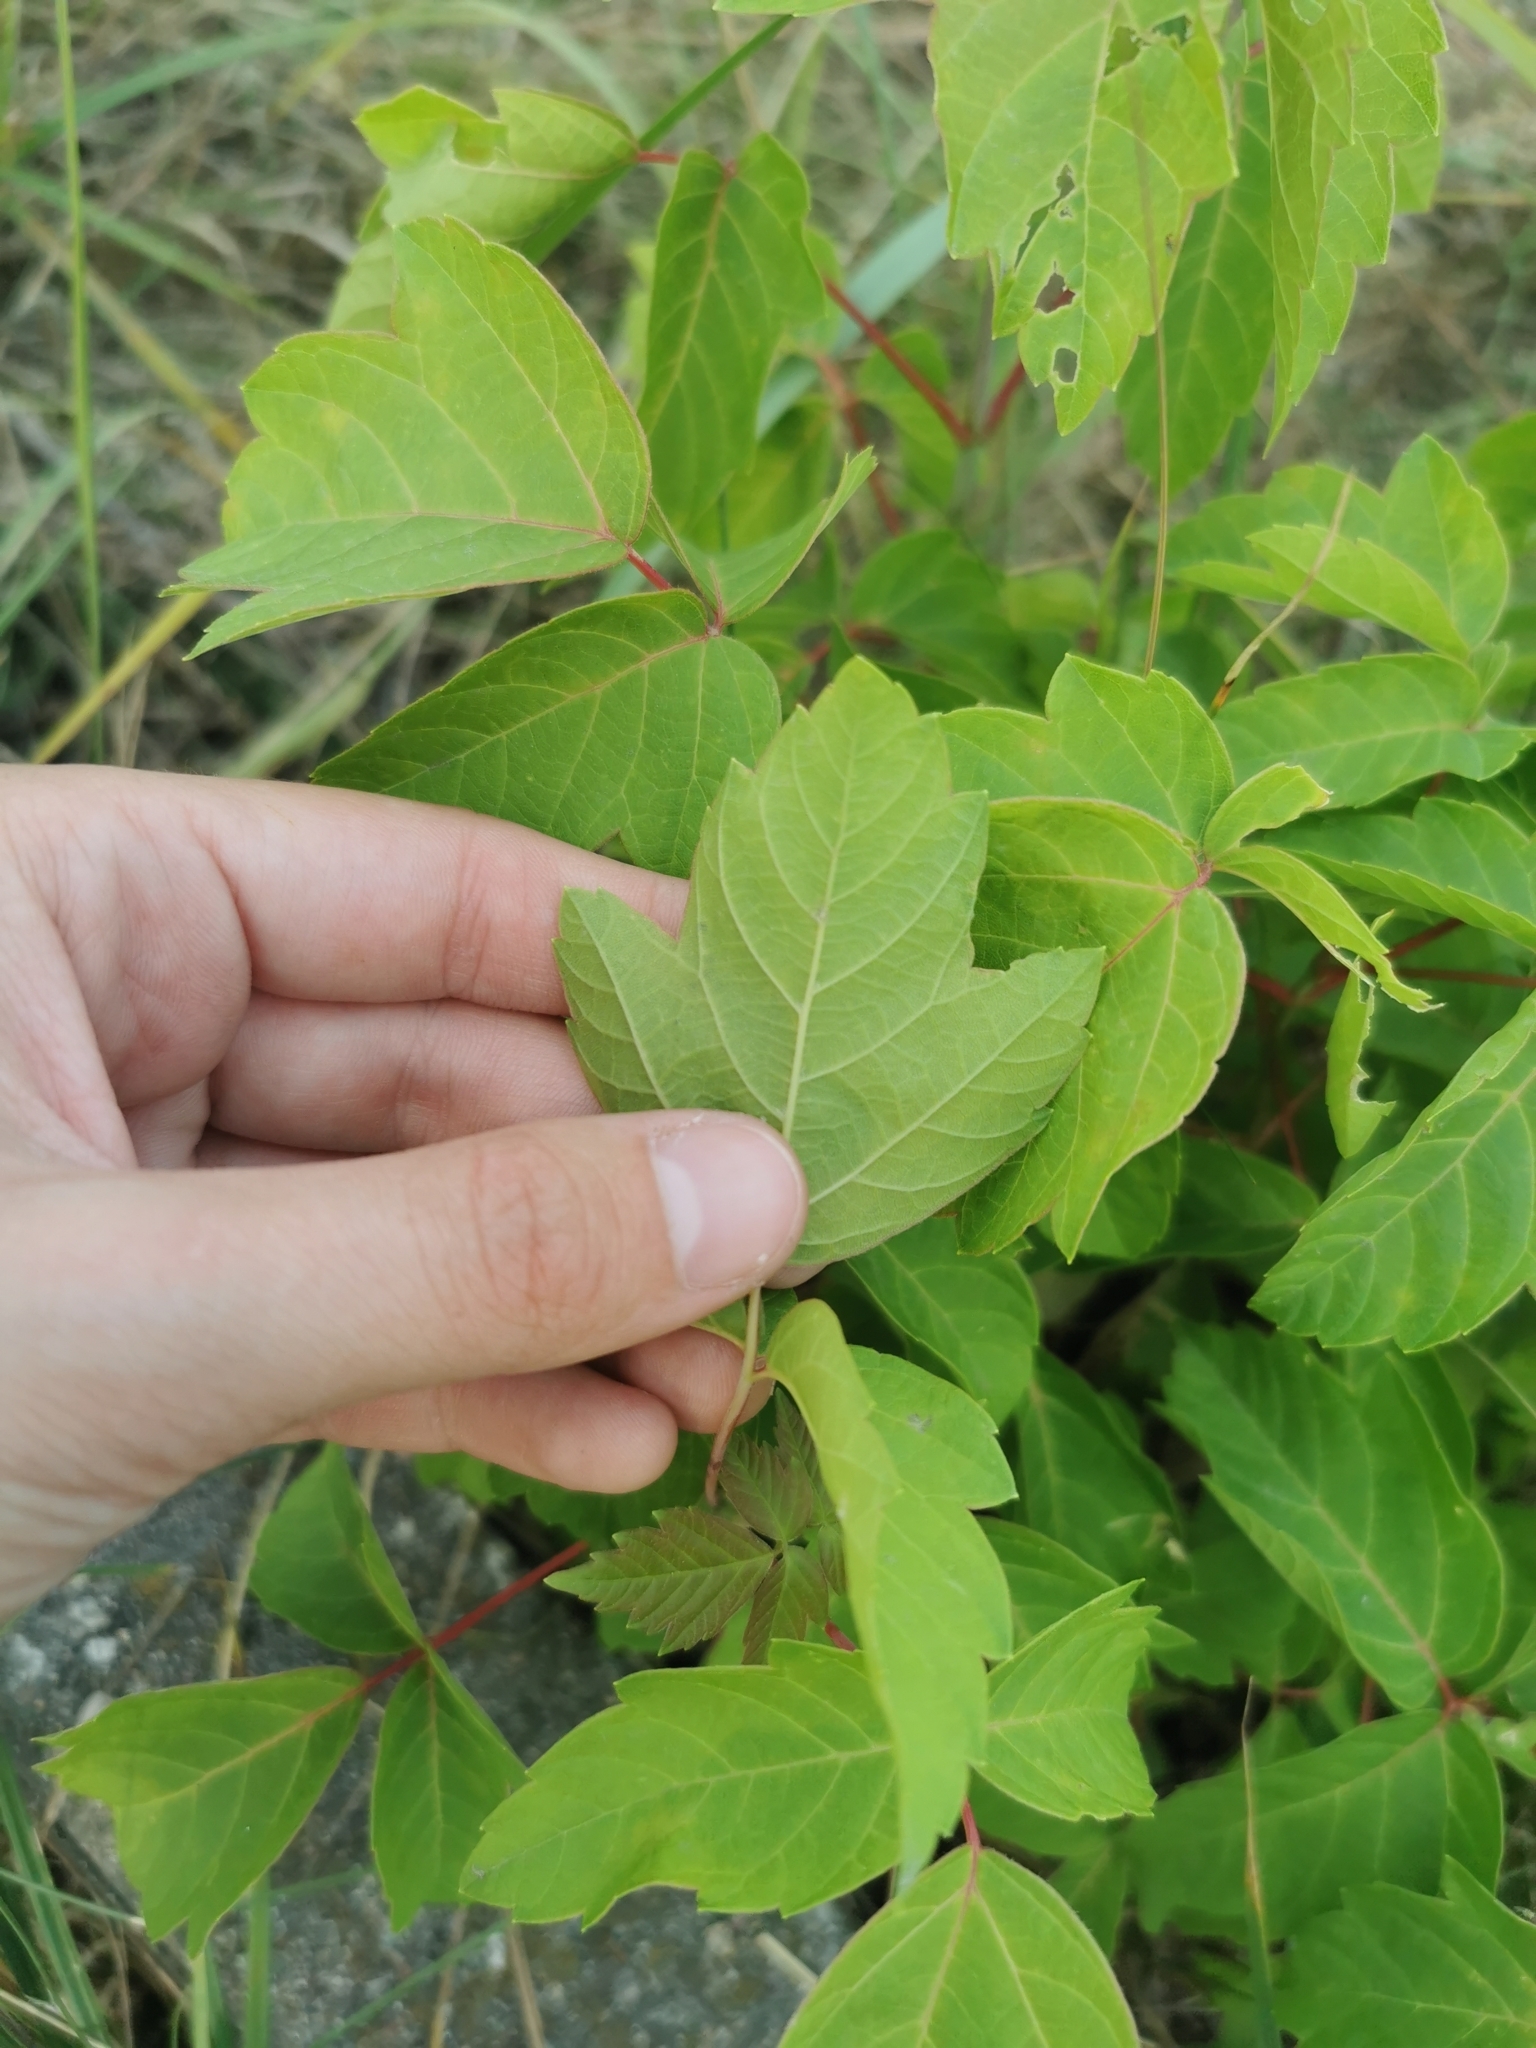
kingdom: Plantae
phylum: Tracheophyta
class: Magnoliopsida
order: Sapindales
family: Sapindaceae
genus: Acer
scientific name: Acer negundo
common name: Ashleaf maple
